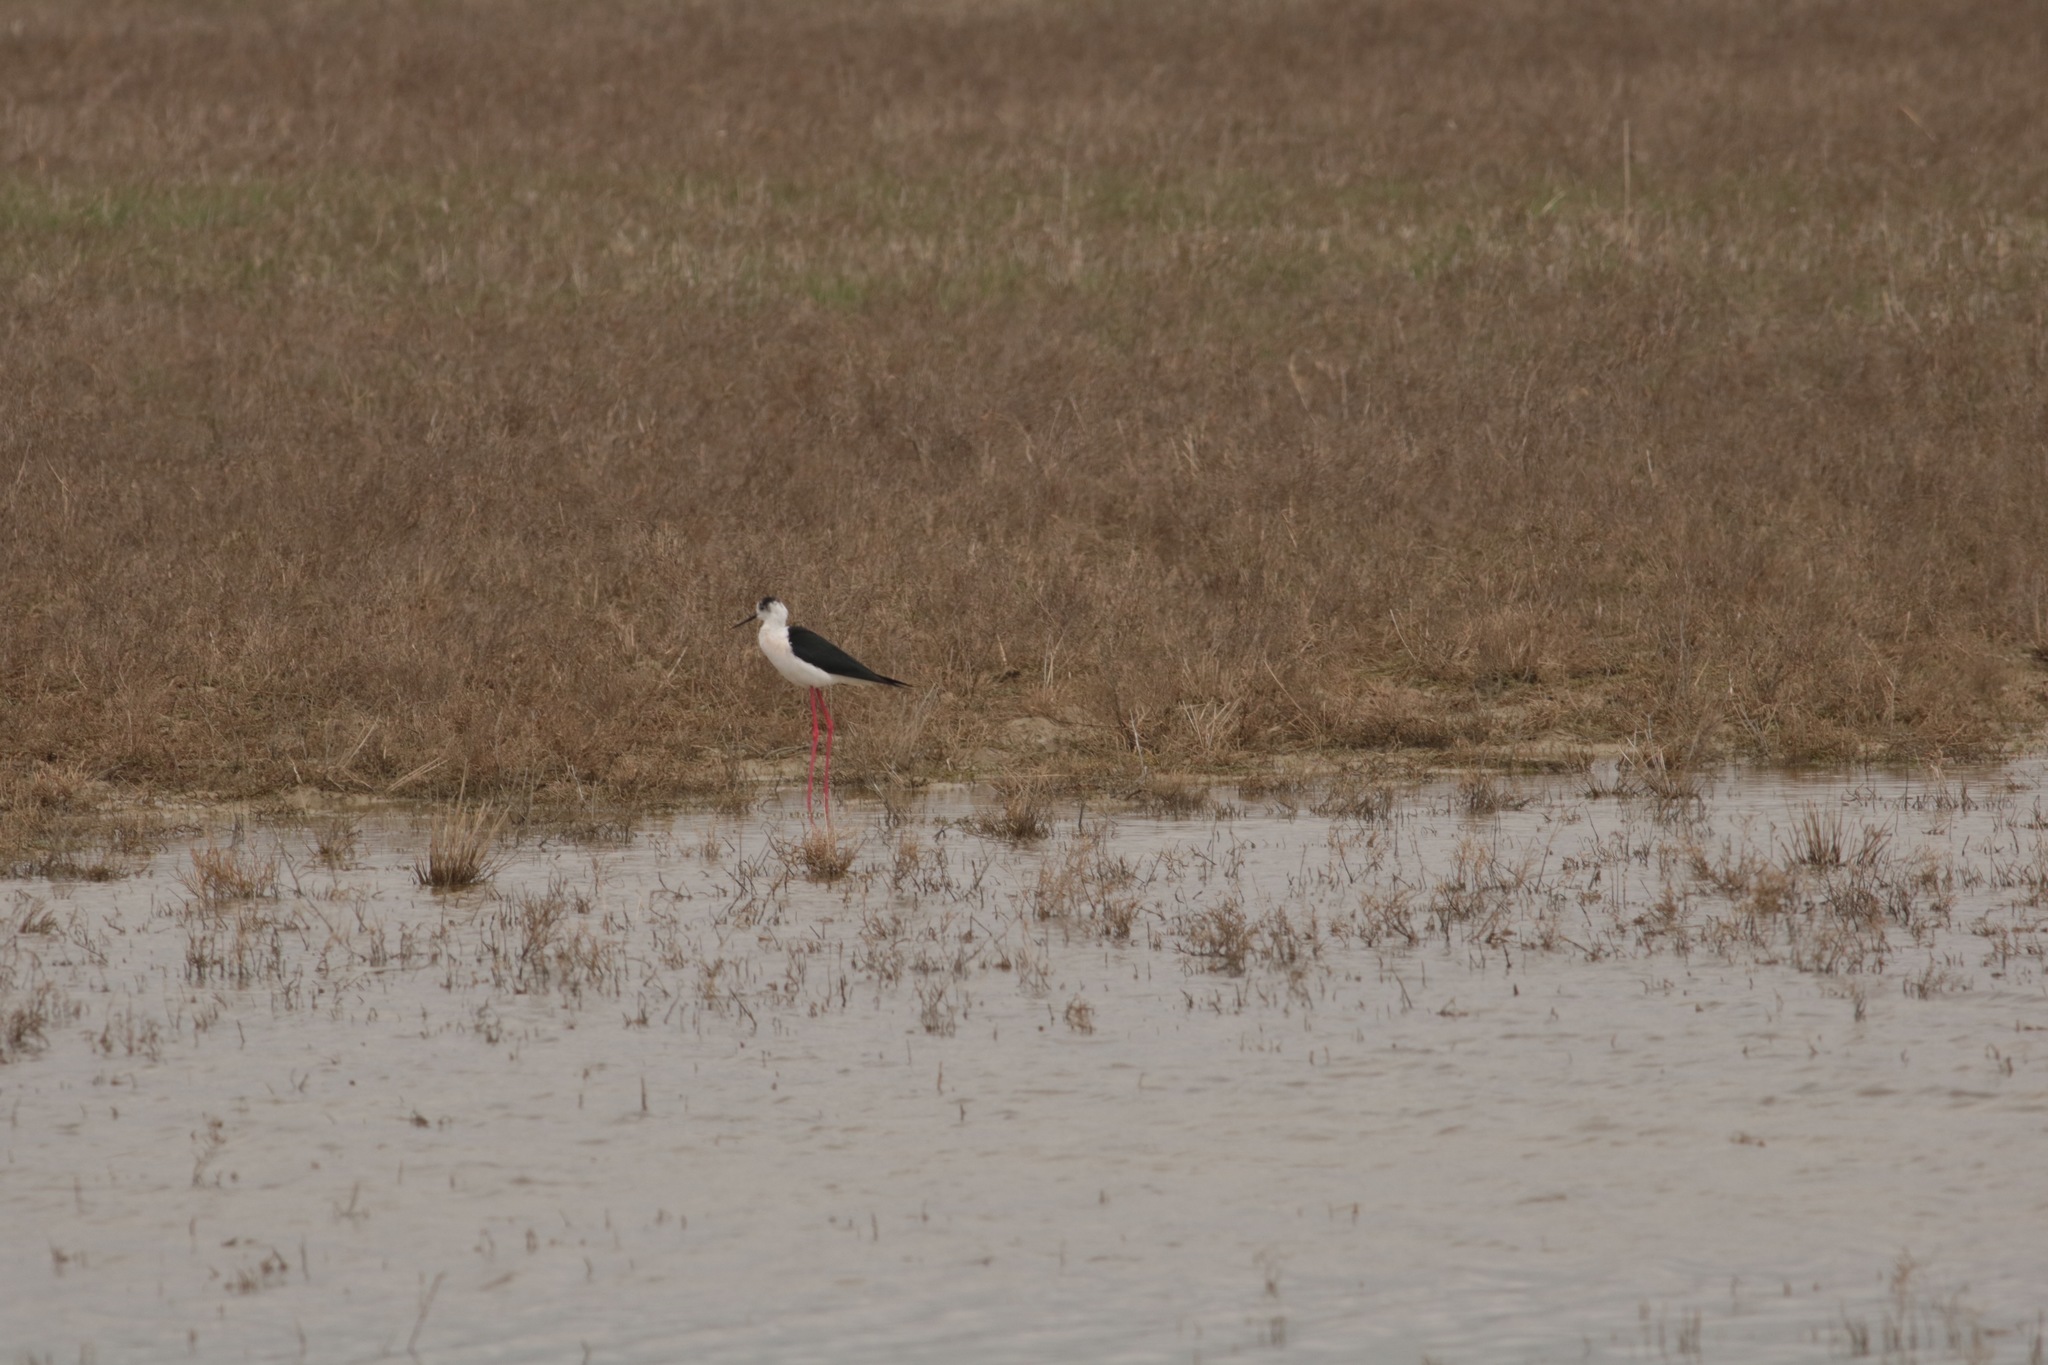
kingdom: Animalia
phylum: Chordata
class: Aves
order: Charadriiformes
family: Recurvirostridae
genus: Himantopus
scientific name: Himantopus himantopus
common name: Black-winged stilt
